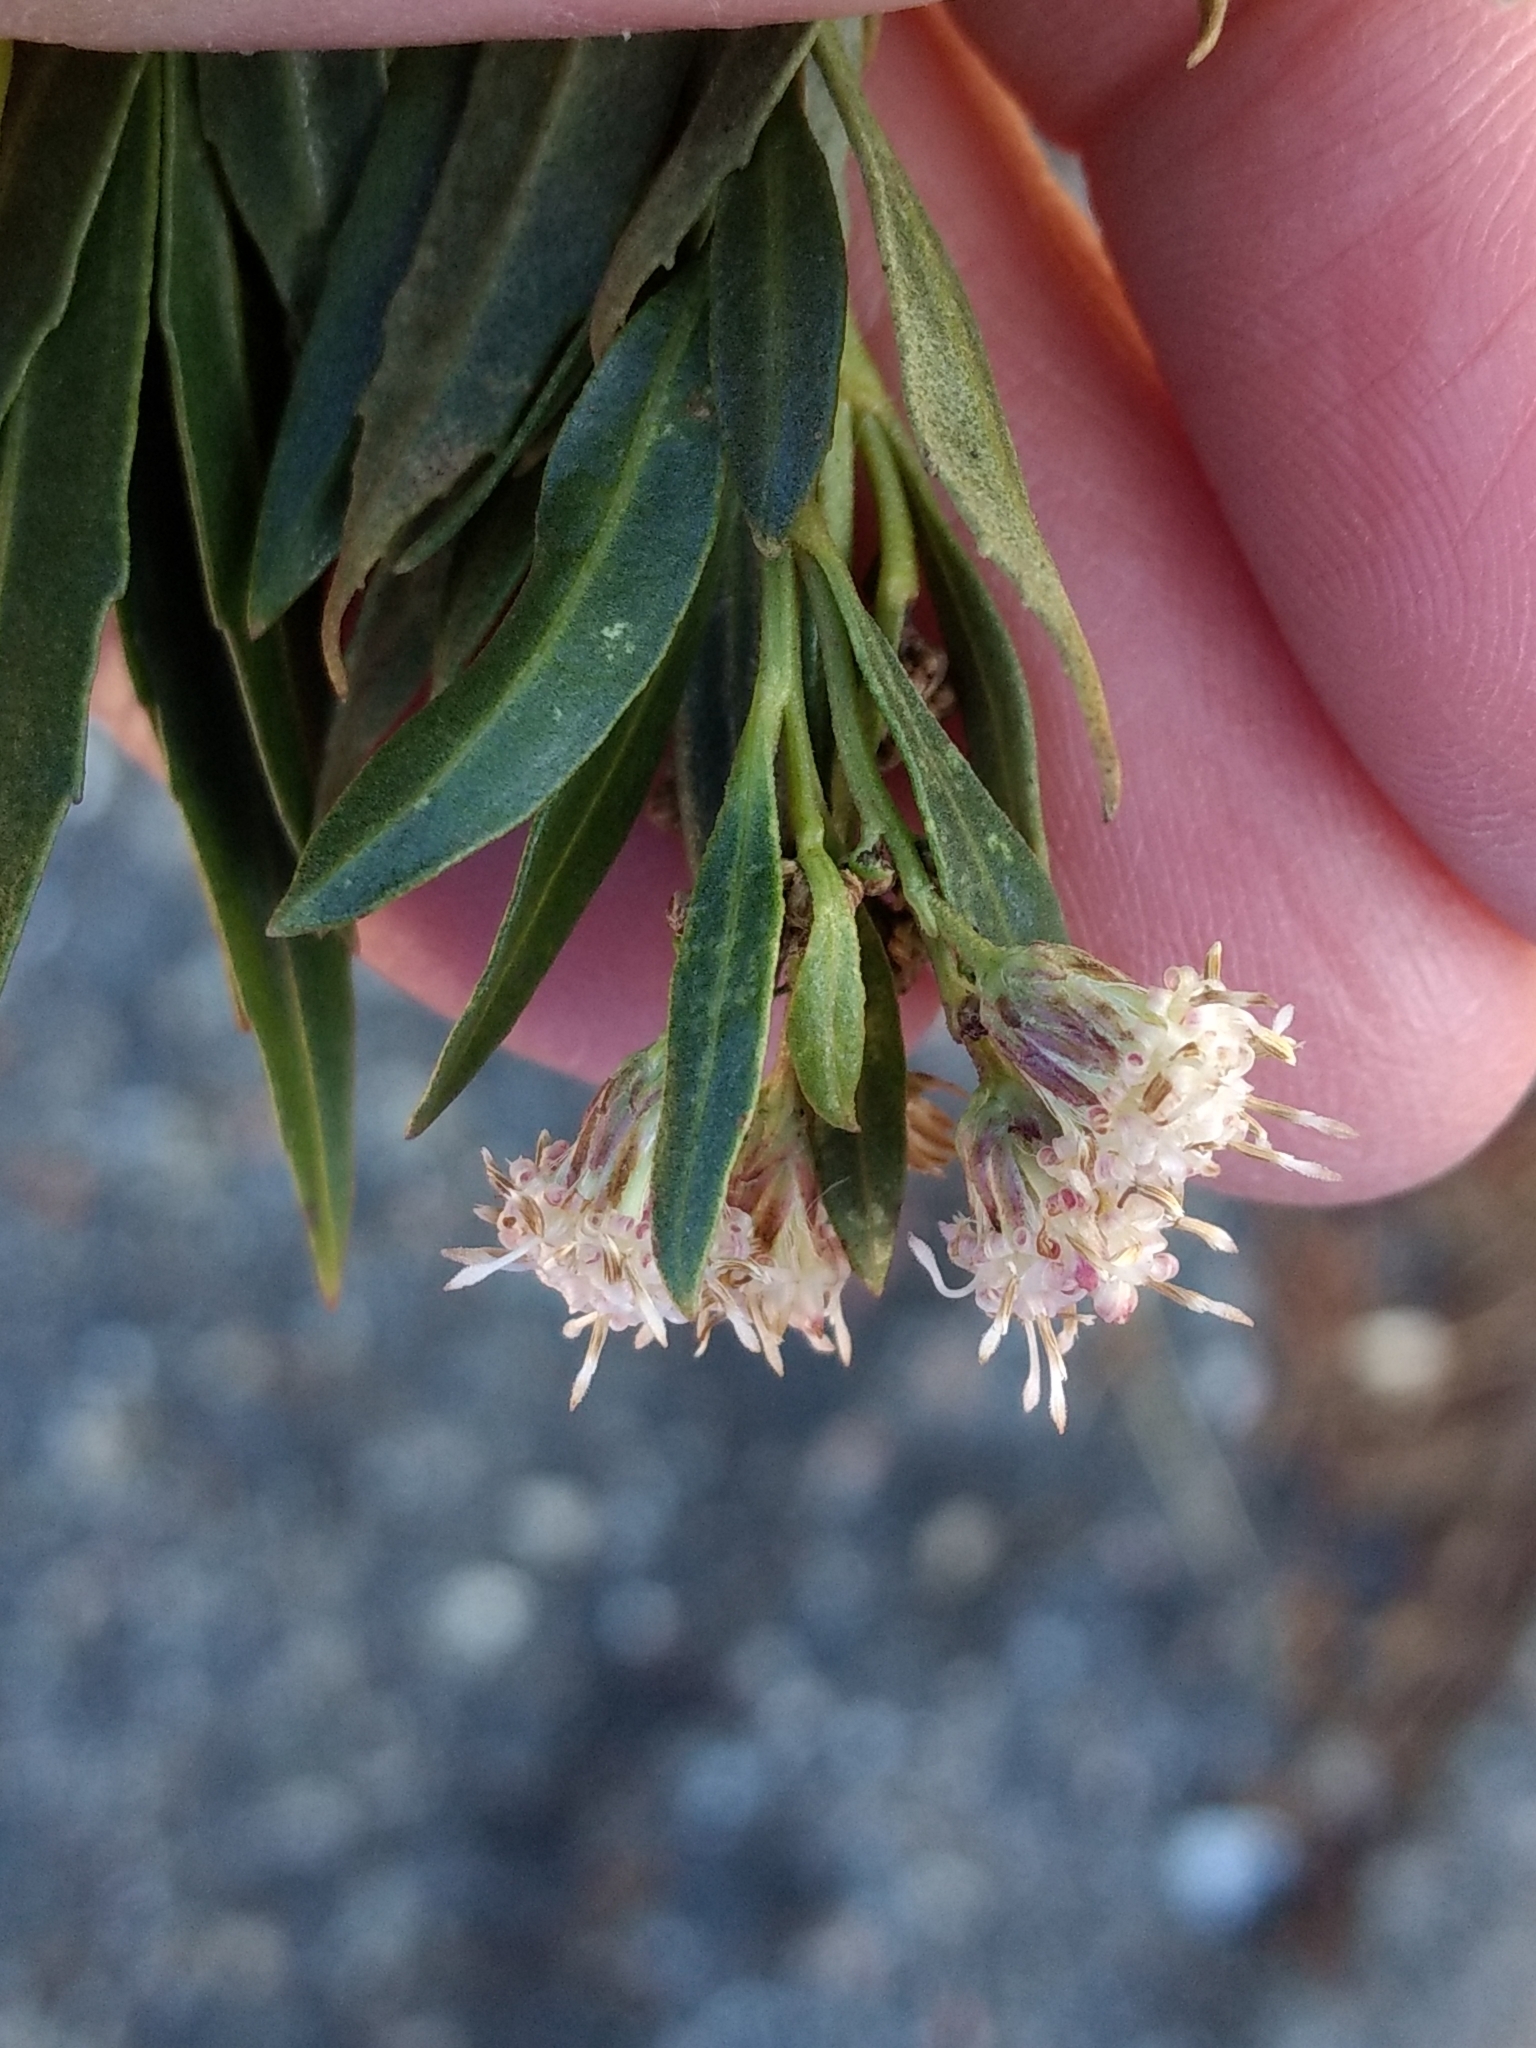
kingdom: Plantae
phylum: Tracheophyta
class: Magnoliopsida
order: Asterales
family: Asteraceae
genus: Baccharis
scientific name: Baccharis salicifolia
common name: Sticky baccharis
